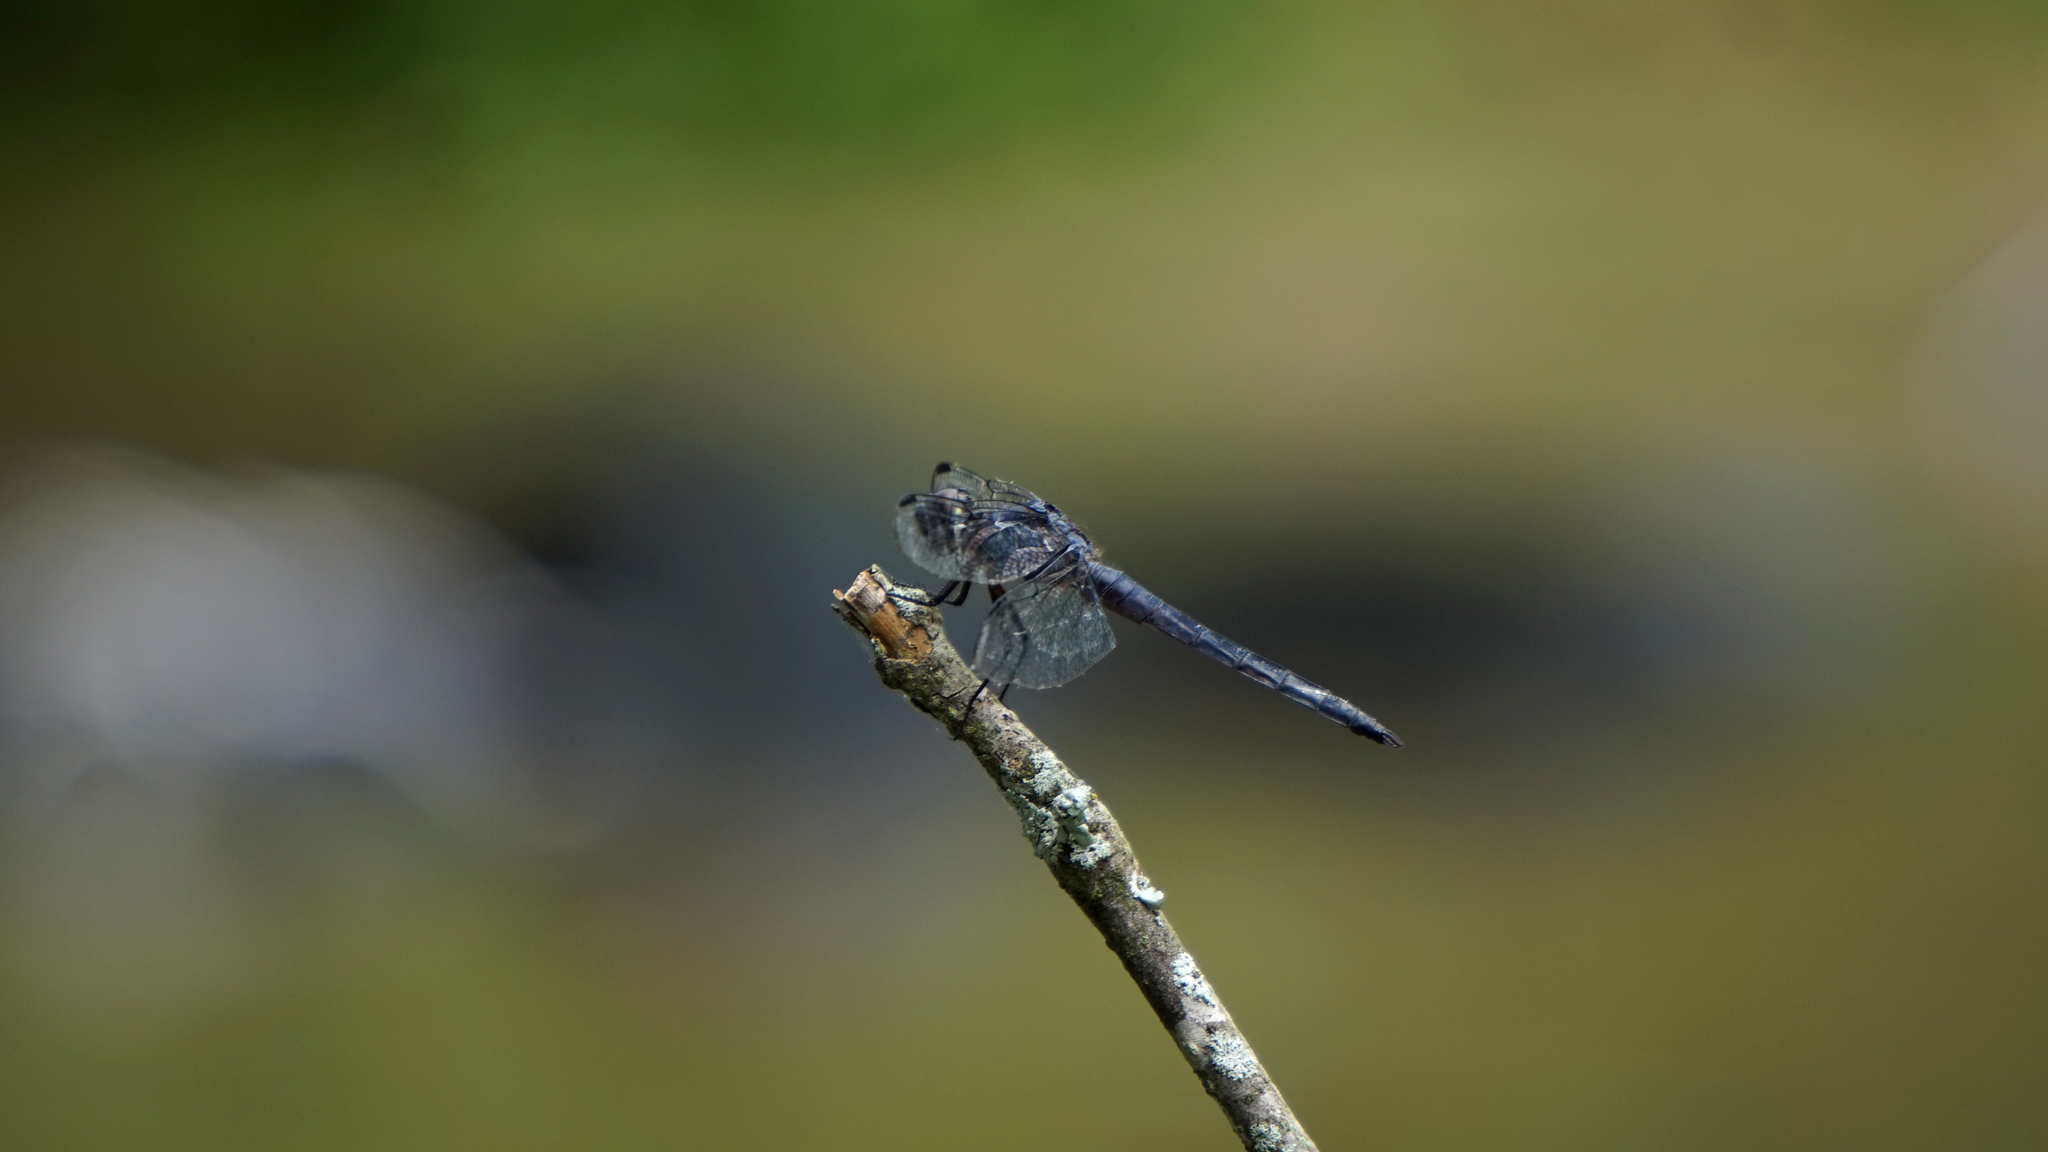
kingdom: Animalia
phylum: Arthropoda
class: Insecta
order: Odonata
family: Libellulidae
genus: Libellula
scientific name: Libellula incesta
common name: Slaty skimmer
